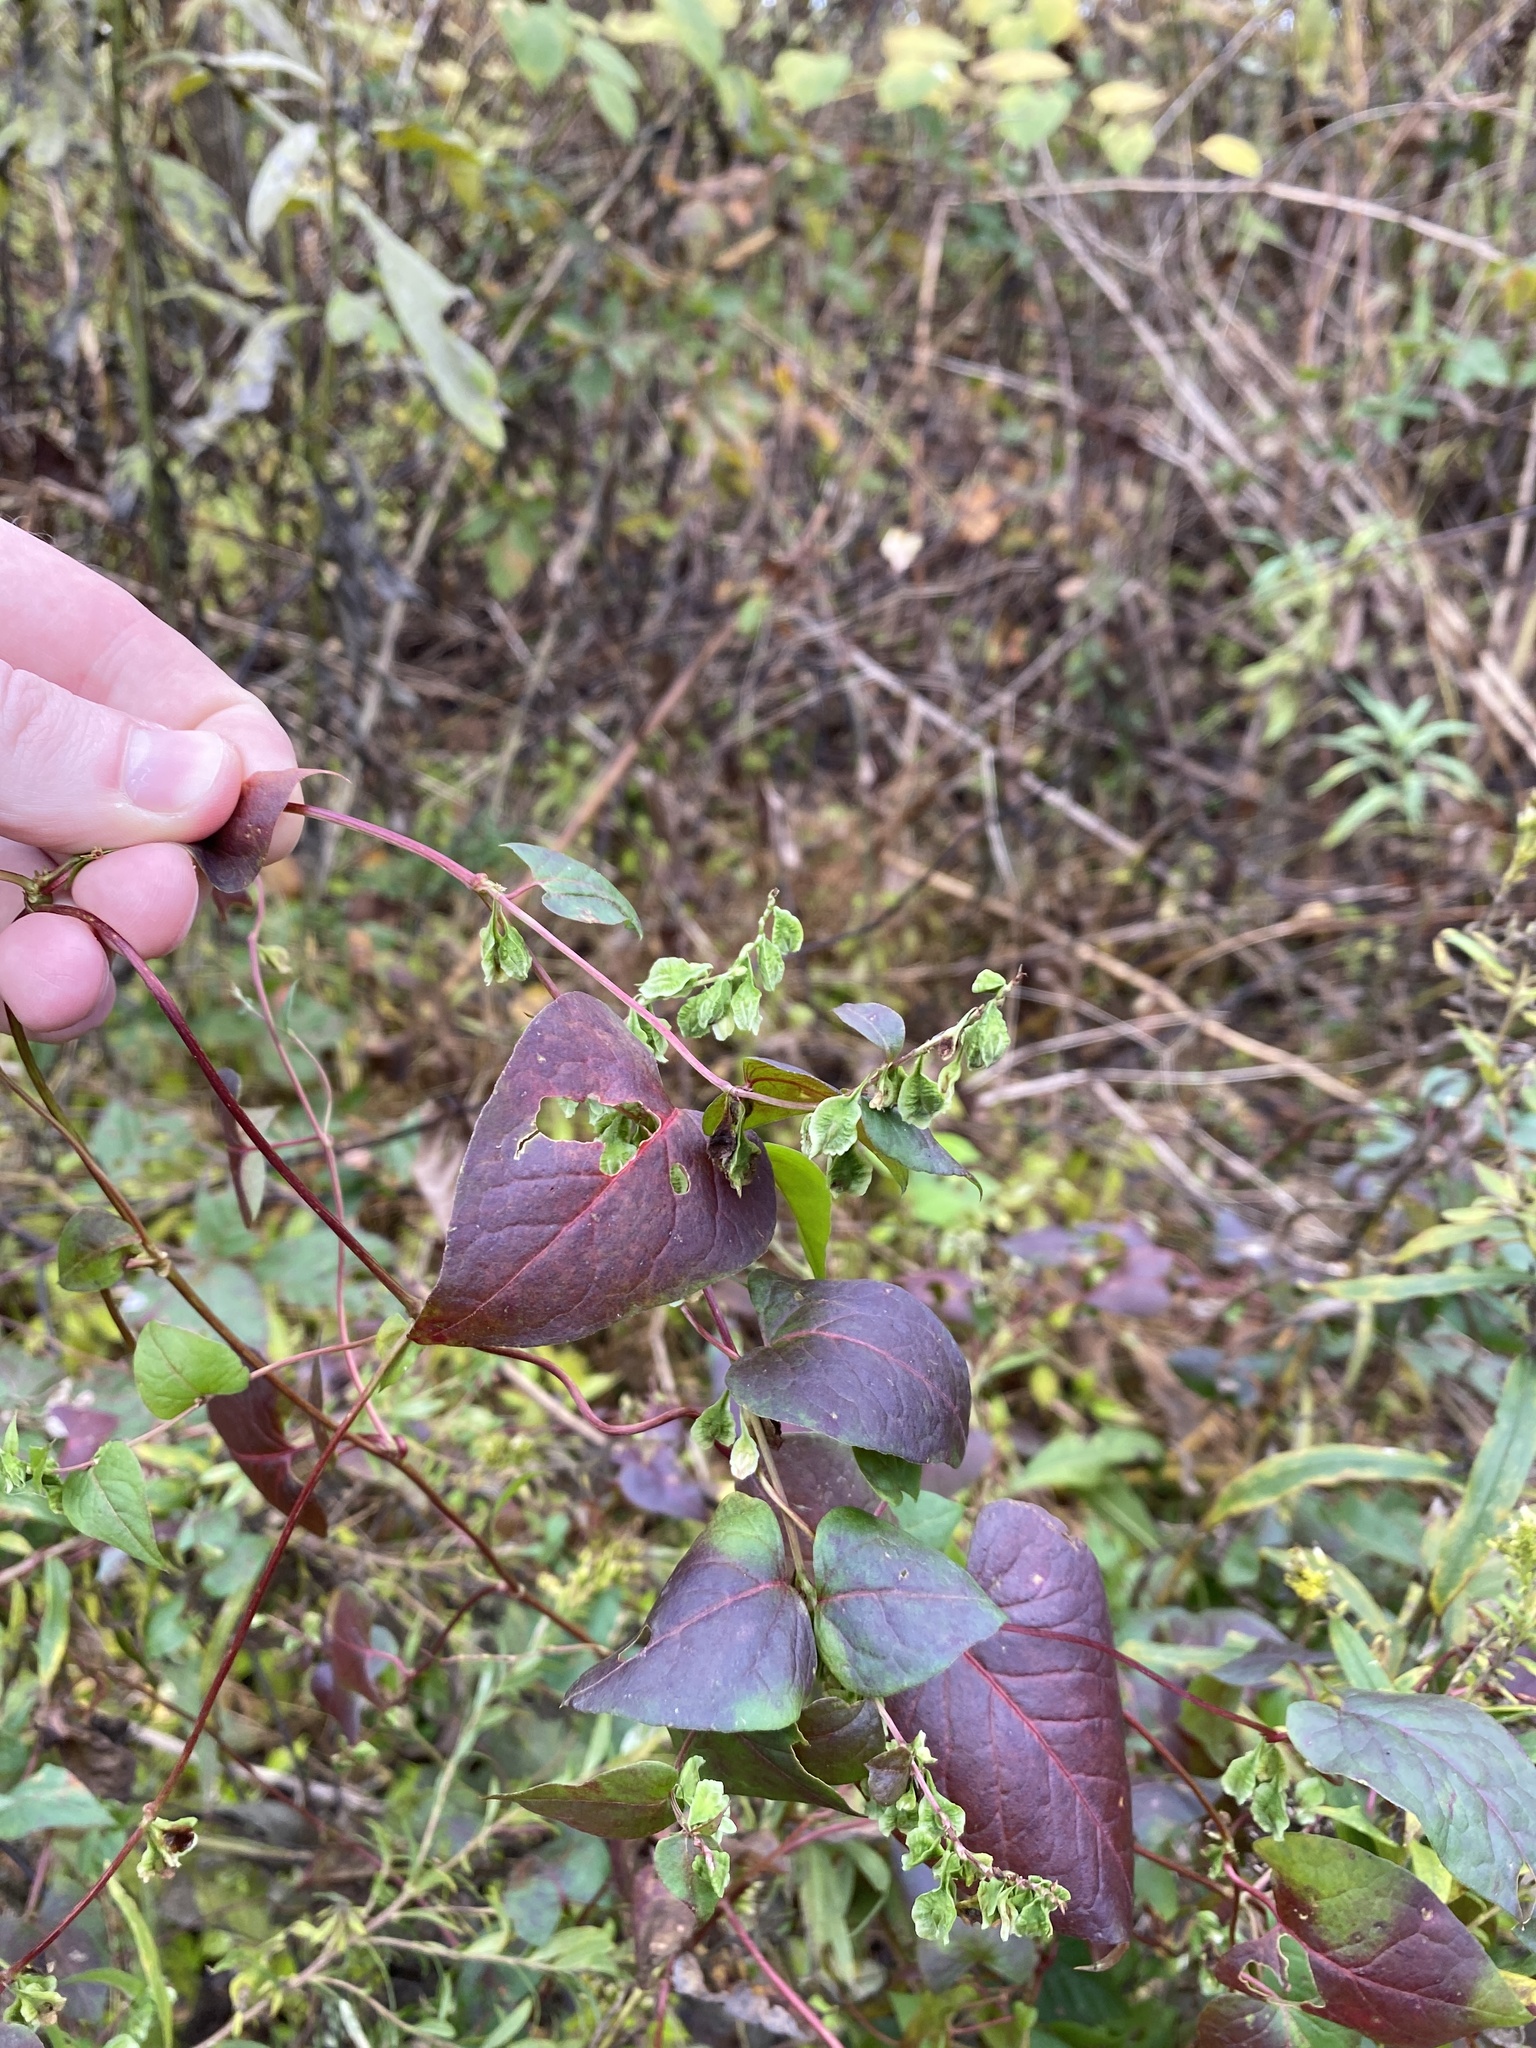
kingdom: Plantae
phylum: Tracheophyta
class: Magnoliopsida
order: Caryophyllales
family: Polygonaceae
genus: Fallopia
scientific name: Fallopia scandens
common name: Climbing false buckwheat
